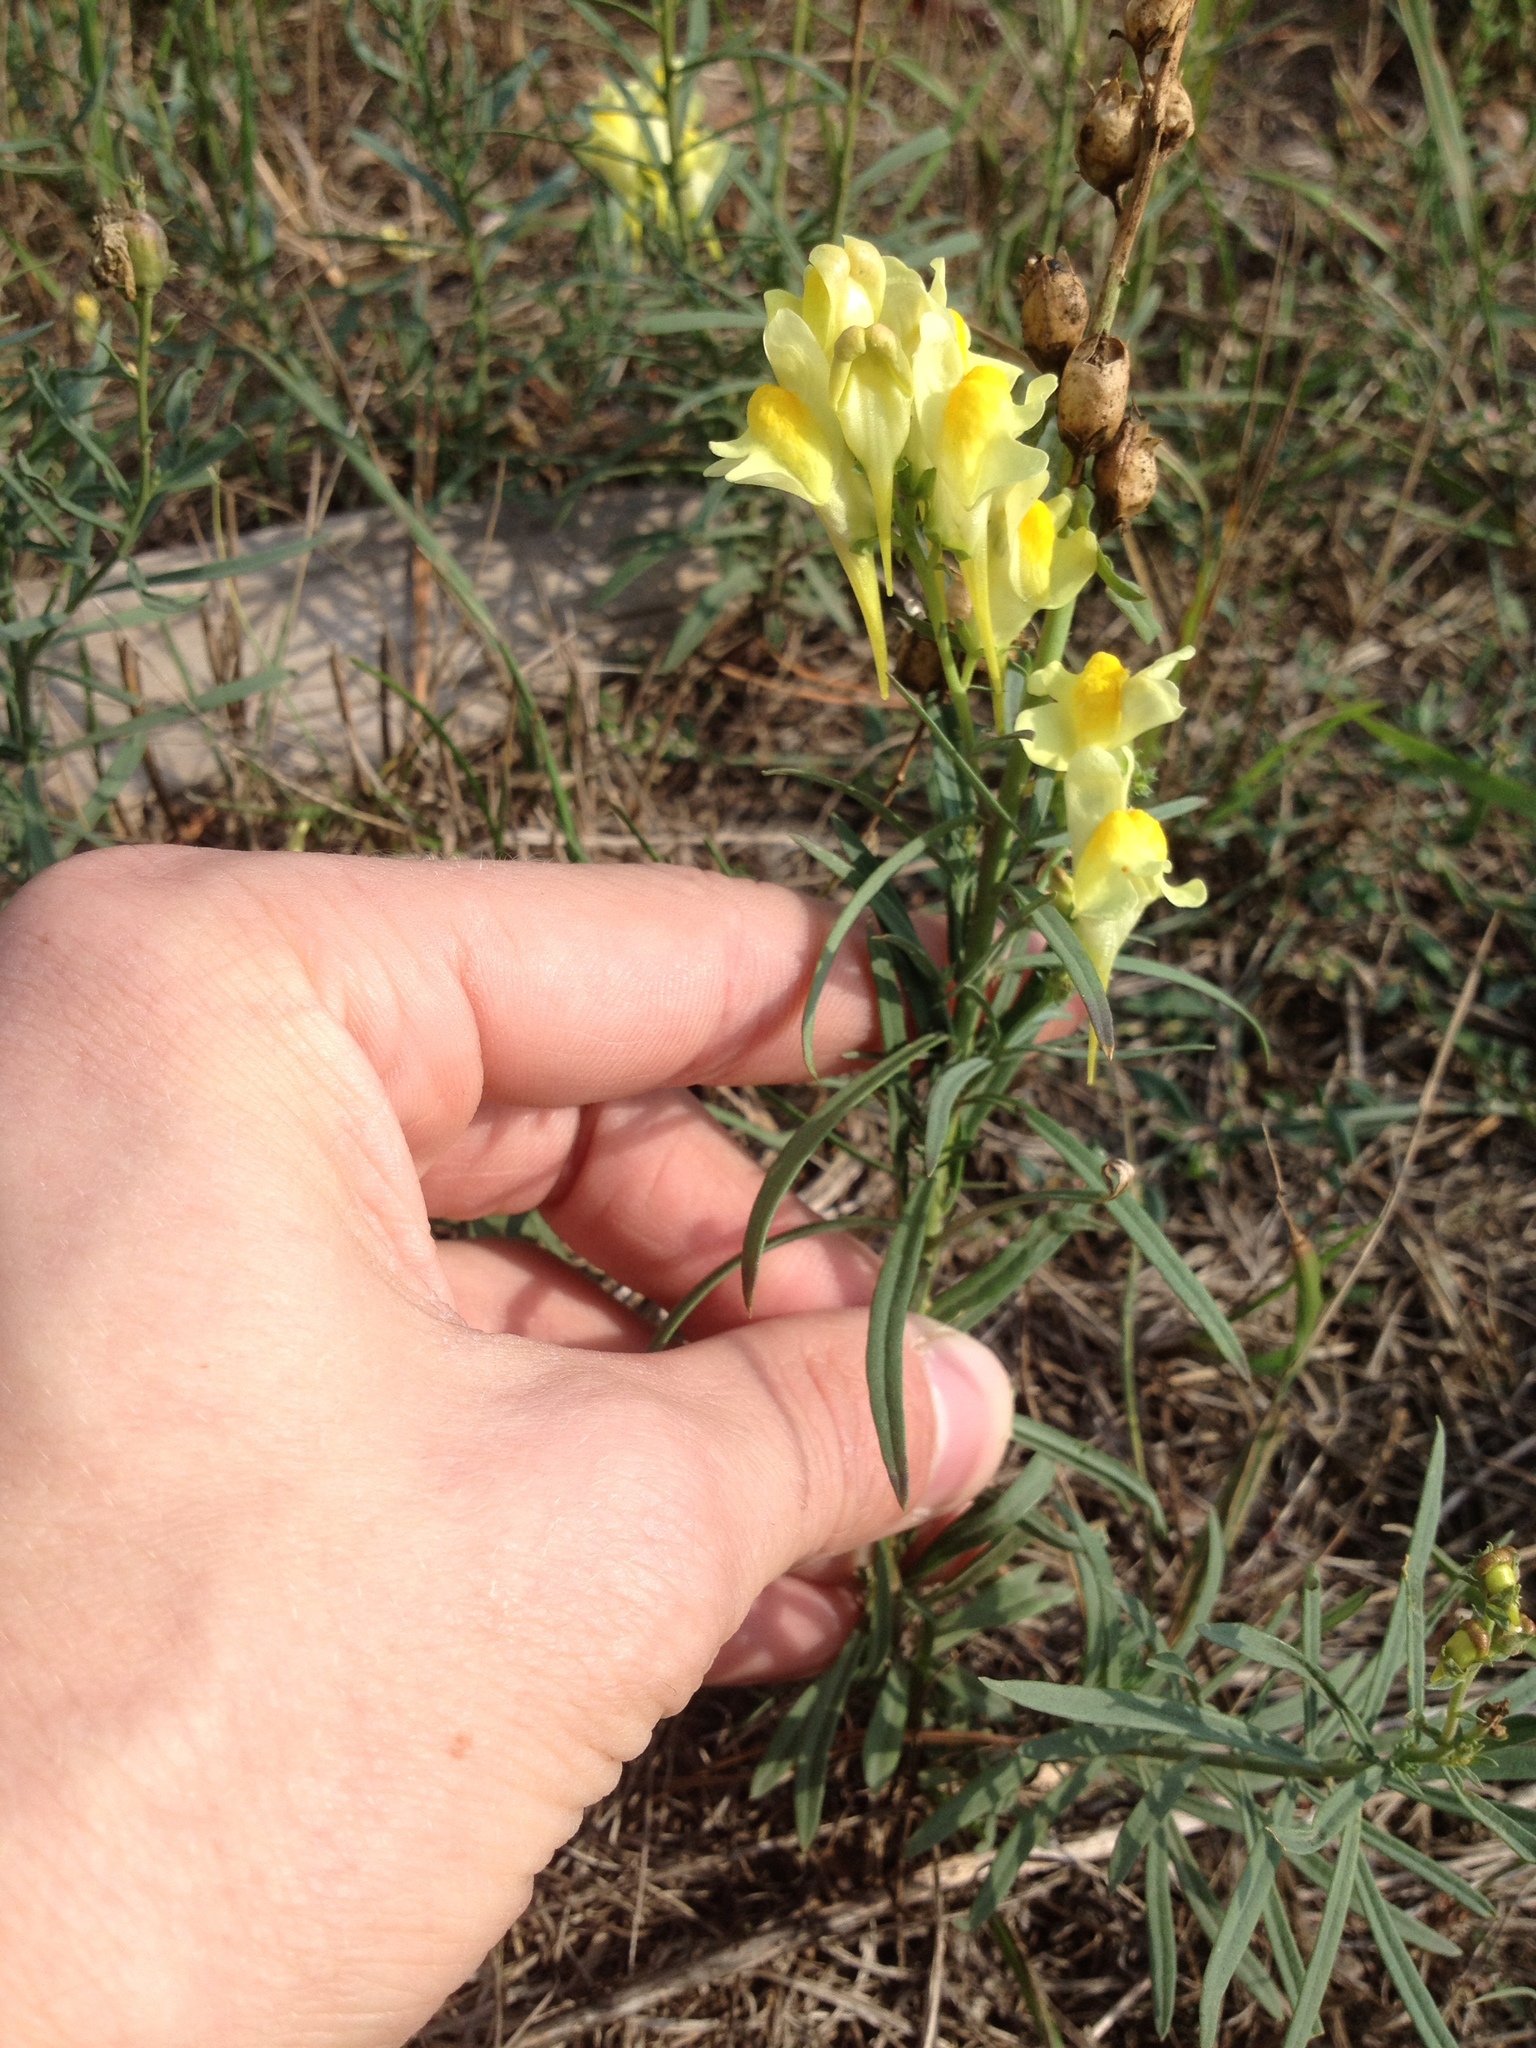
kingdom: Plantae
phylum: Tracheophyta
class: Magnoliopsida
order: Lamiales
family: Plantaginaceae
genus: Linaria
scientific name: Linaria vulgaris
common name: Butter and eggs
